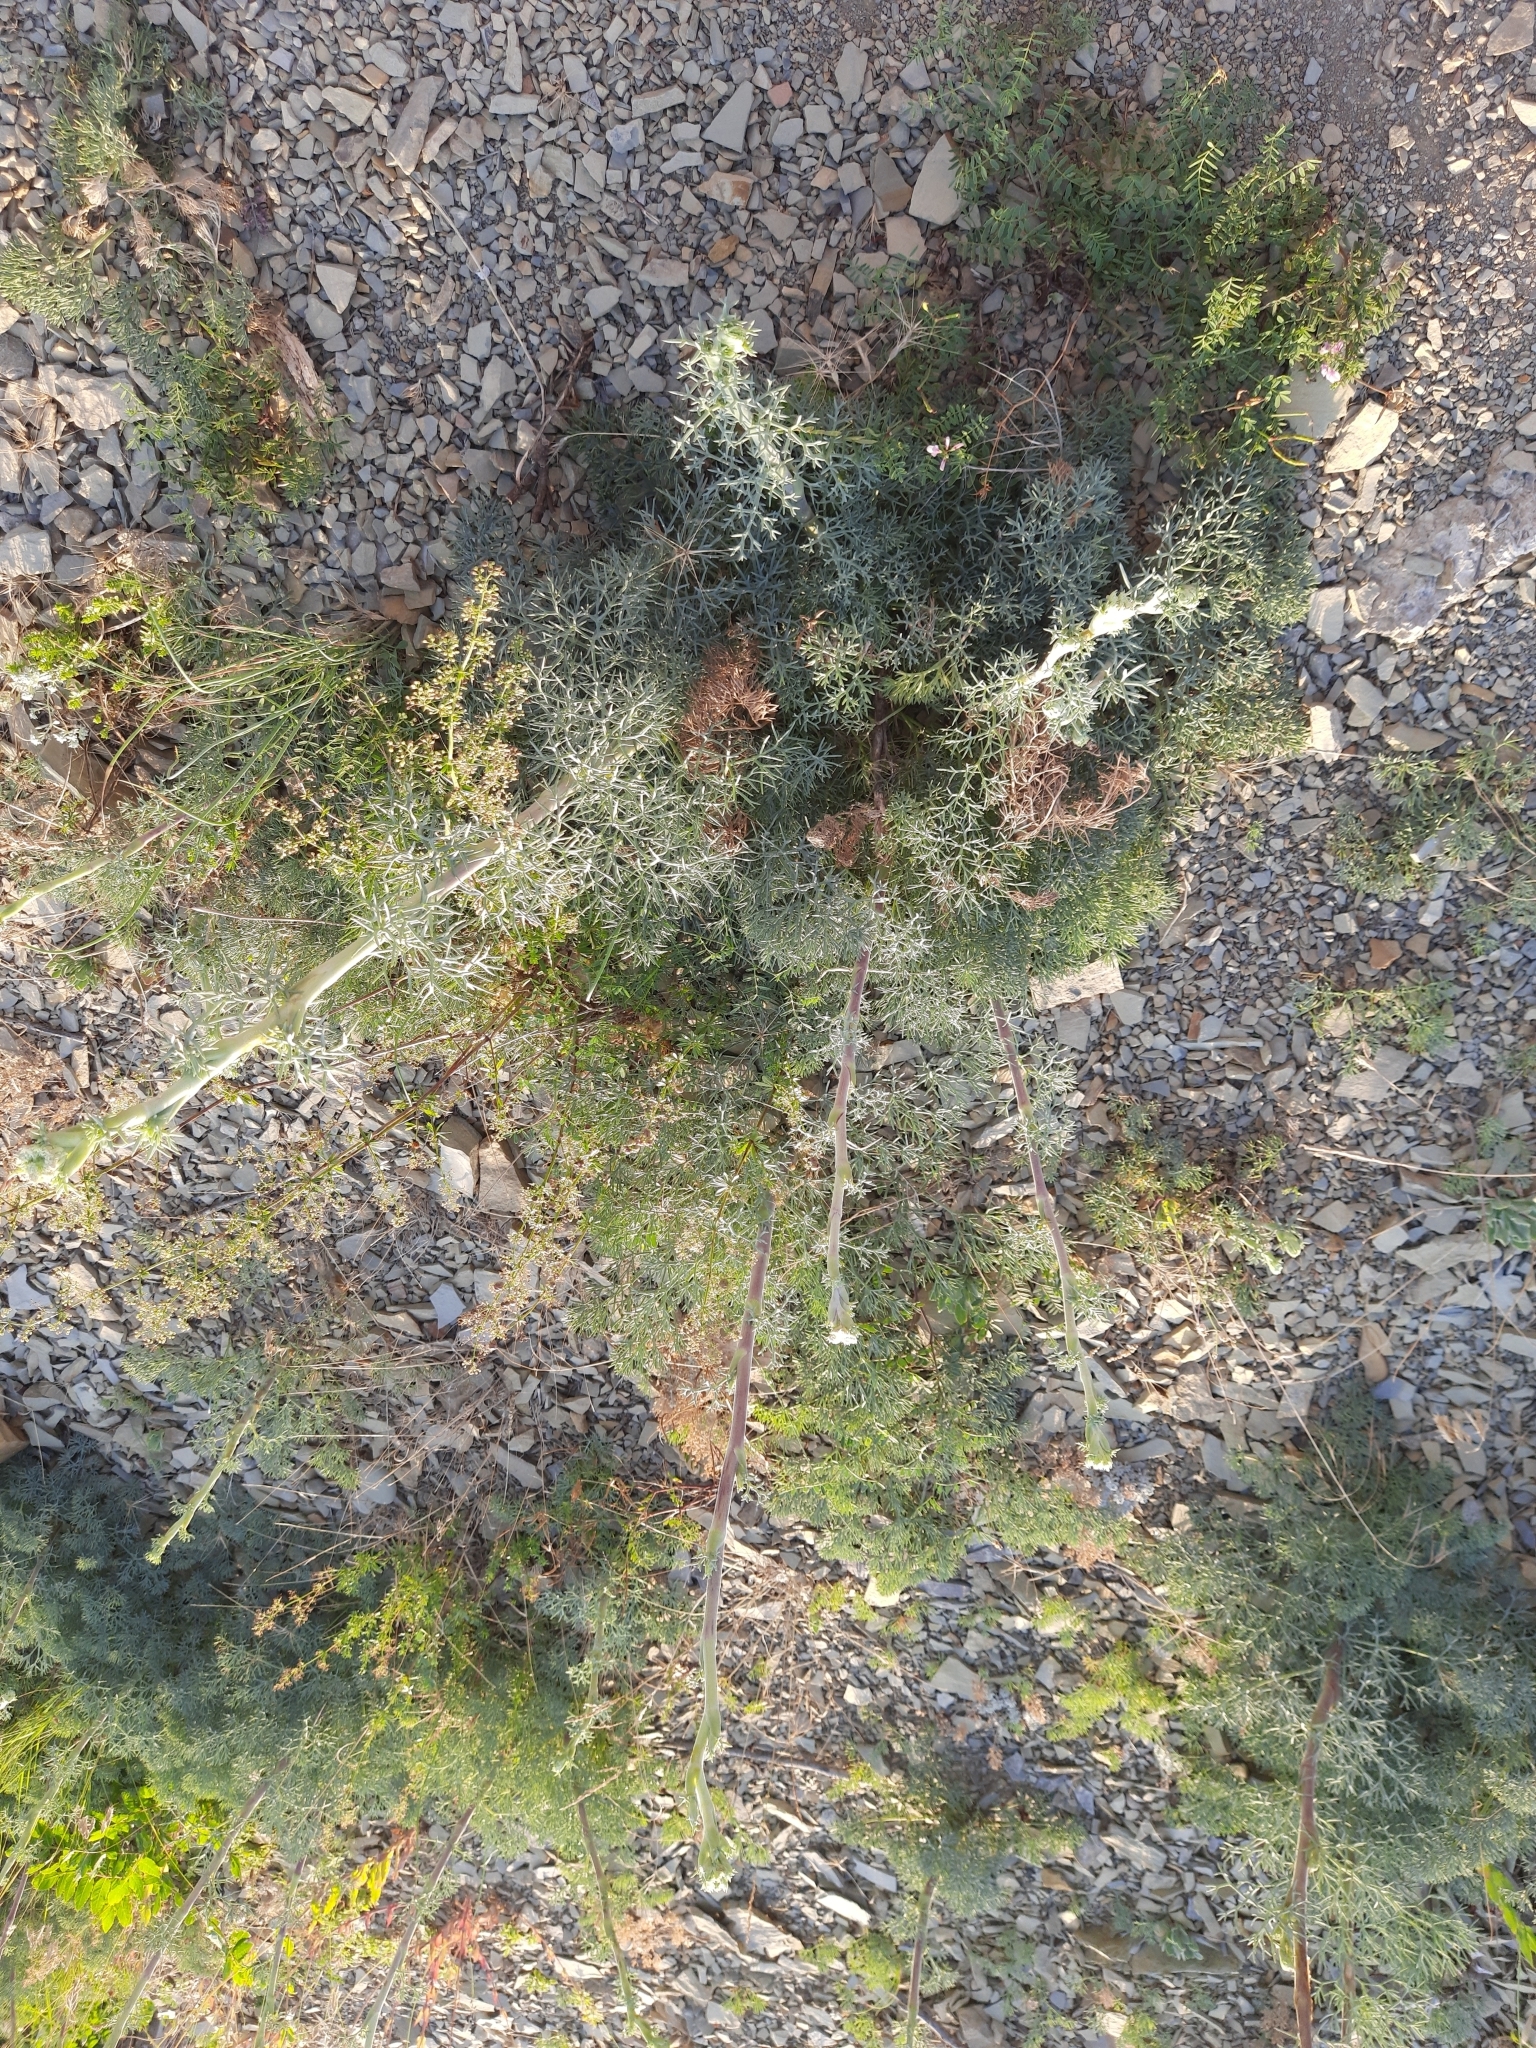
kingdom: Plantae
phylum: Tracheophyta
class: Magnoliopsida
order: Apiales
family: Apiaceae
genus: Seseli
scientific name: Seseli ponticum
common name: Pontic seseli
